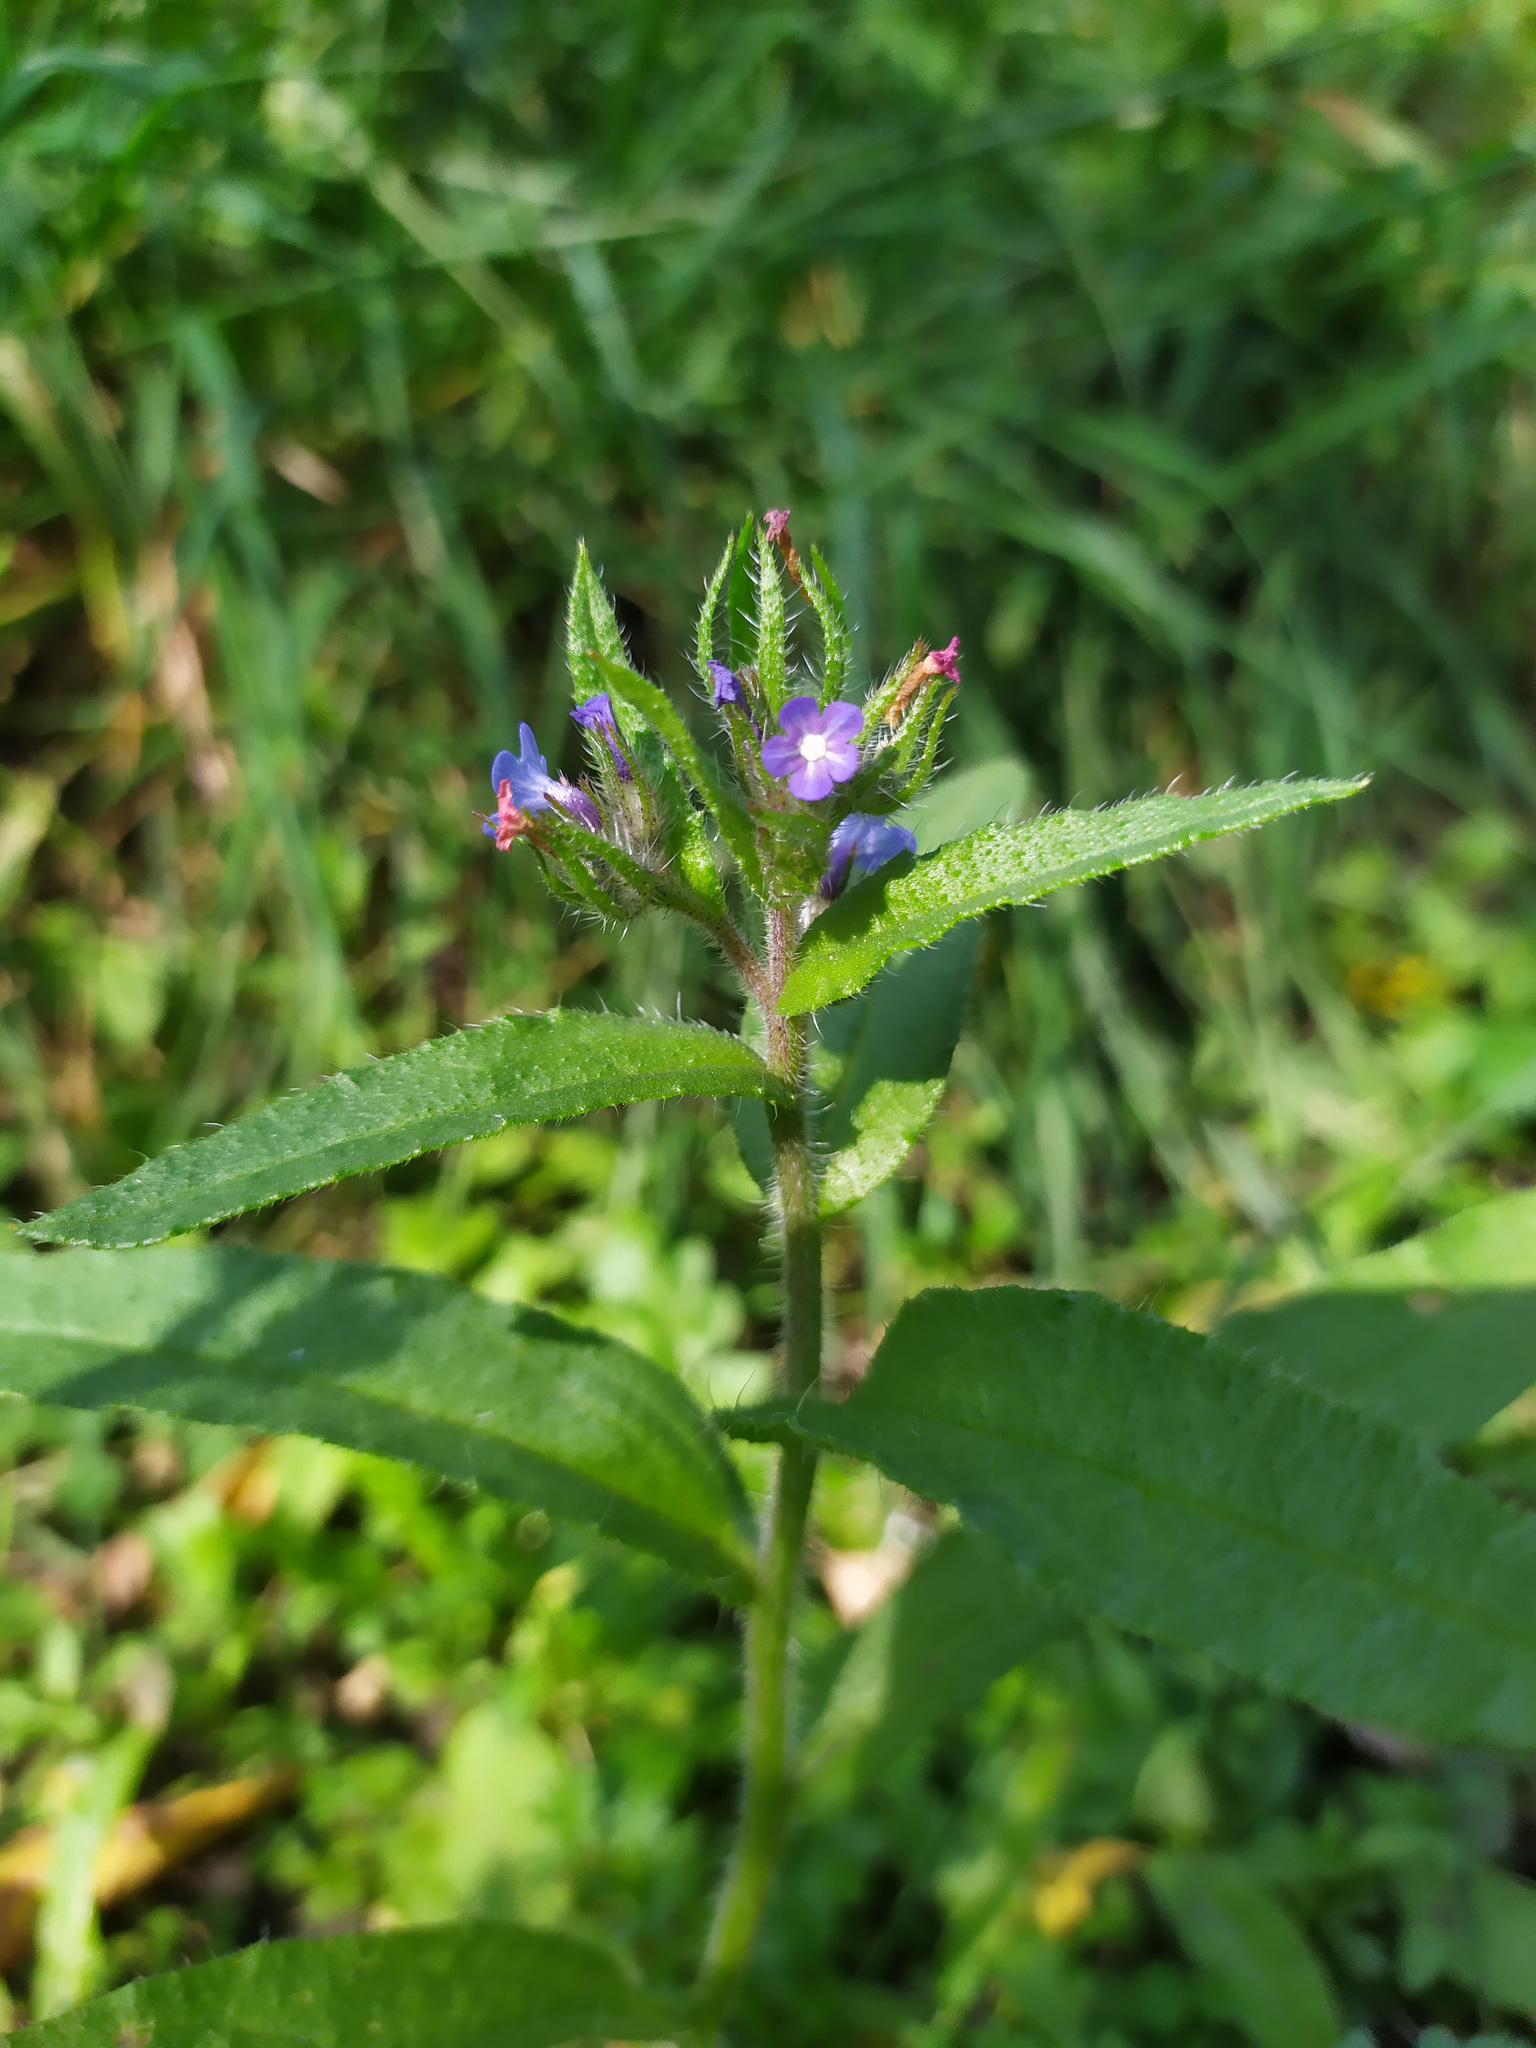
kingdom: Plantae
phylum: Tracheophyta
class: Magnoliopsida
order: Boraginales
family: Boraginaceae
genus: Lycopsis
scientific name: Lycopsis arvensis
